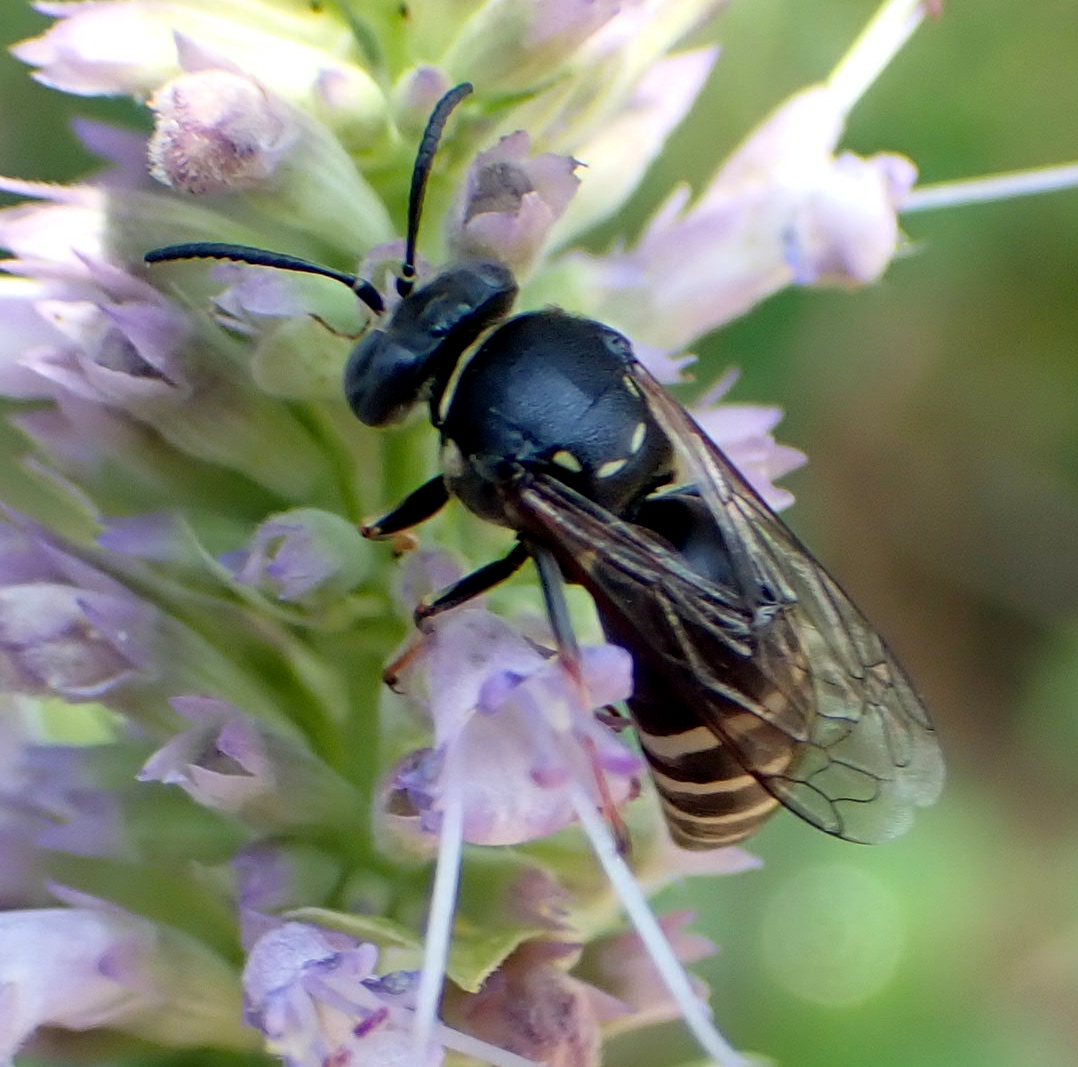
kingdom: Animalia
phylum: Arthropoda
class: Insecta
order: Hymenoptera
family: Crabronidae
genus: Bicyrtes
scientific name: Bicyrtes ventralis
